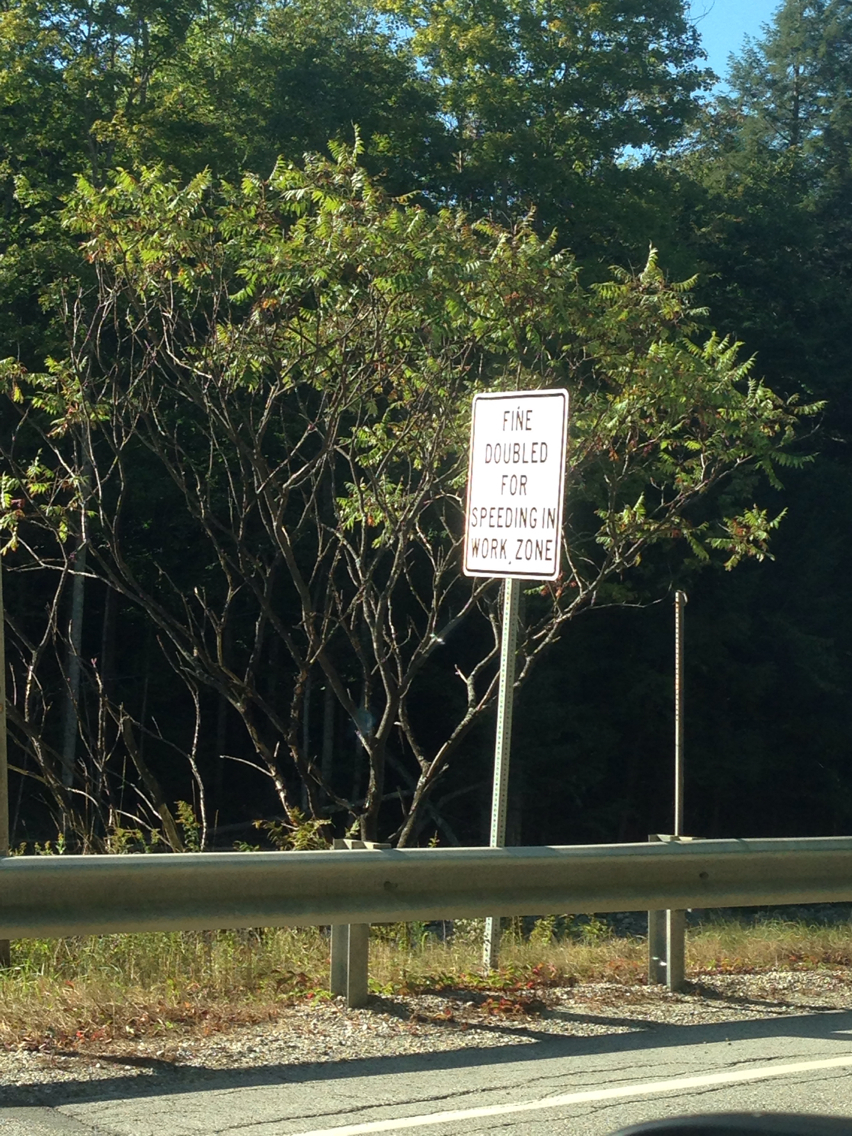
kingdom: Plantae
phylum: Tracheophyta
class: Magnoliopsida
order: Sapindales
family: Anacardiaceae
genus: Rhus
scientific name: Rhus typhina
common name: Staghorn sumac
